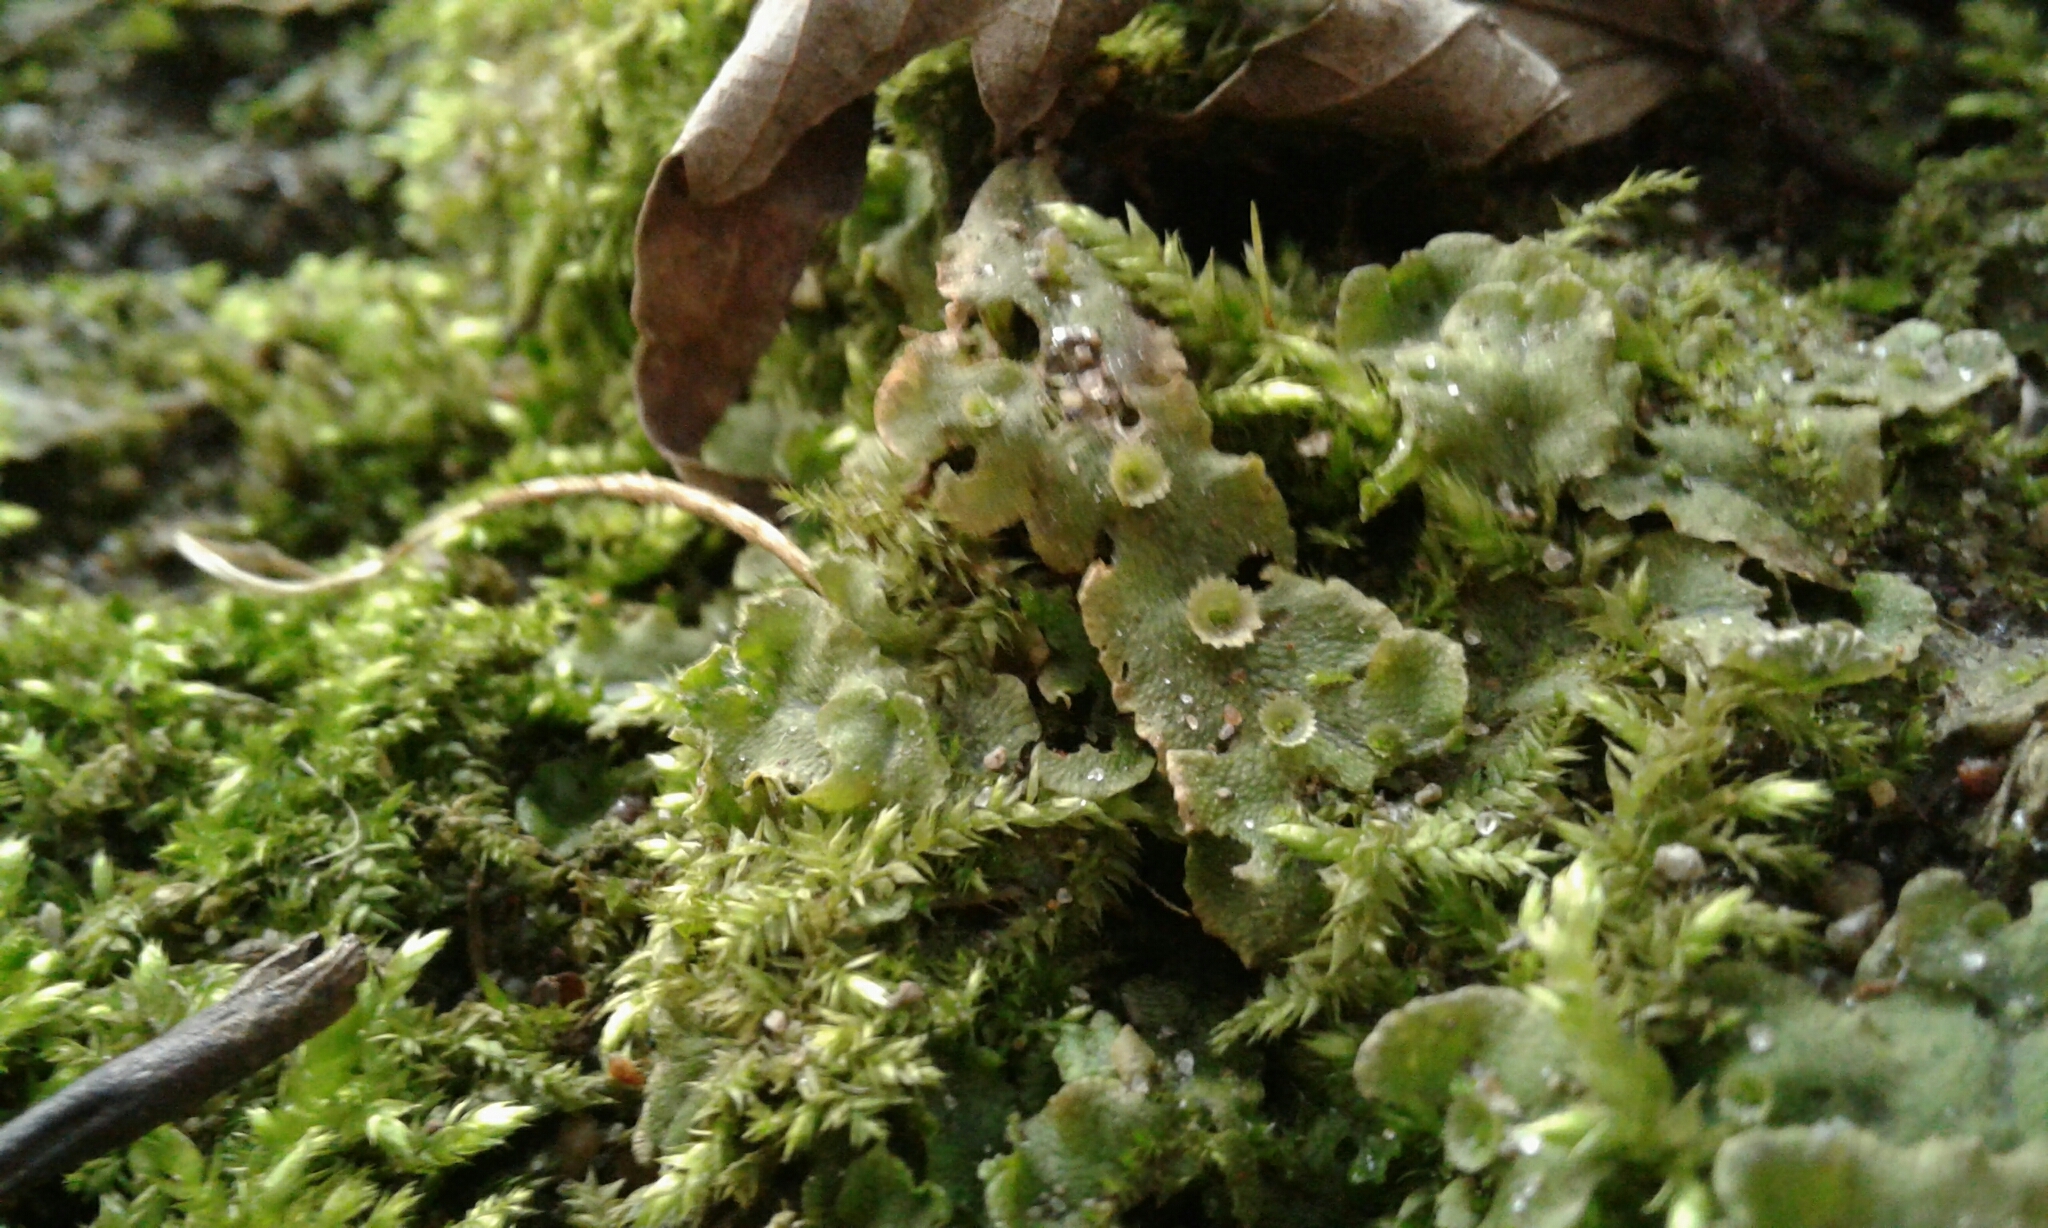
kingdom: Plantae
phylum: Marchantiophyta
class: Marchantiopsida
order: Marchantiales
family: Marchantiaceae
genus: Marchantia
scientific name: Marchantia polymorpha
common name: Common liverwort
